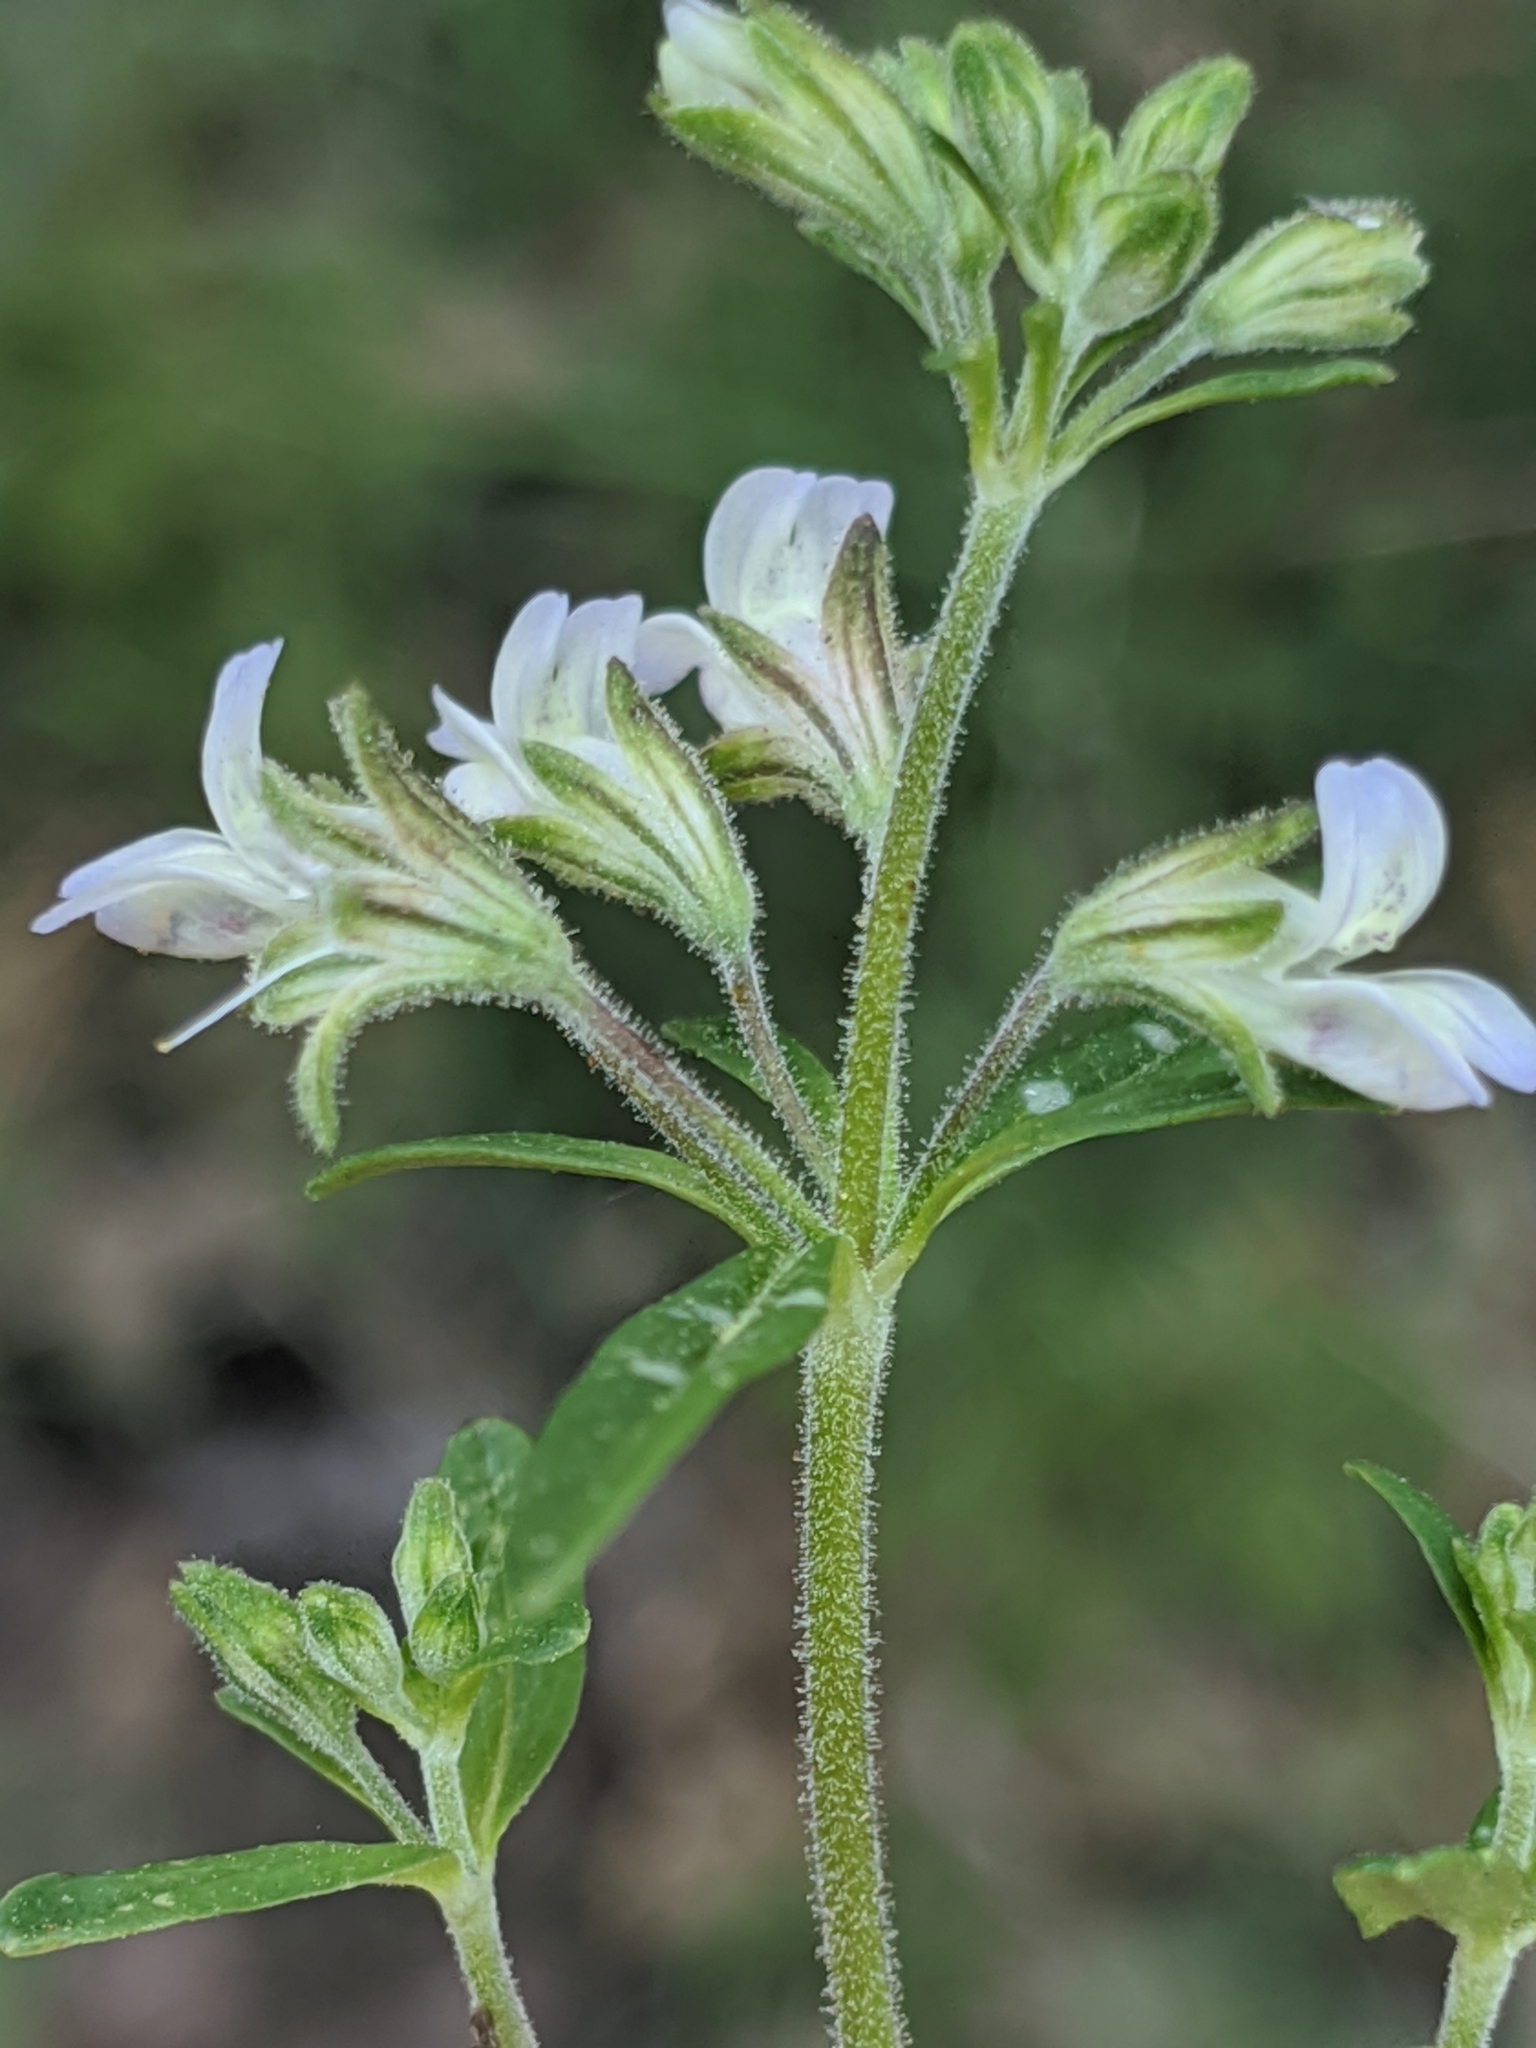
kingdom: Plantae
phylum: Tracheophyta
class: Magnoliopsida
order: Lamiales
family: Plantaginaceae
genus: Collinsia
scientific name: Collinsia childii
